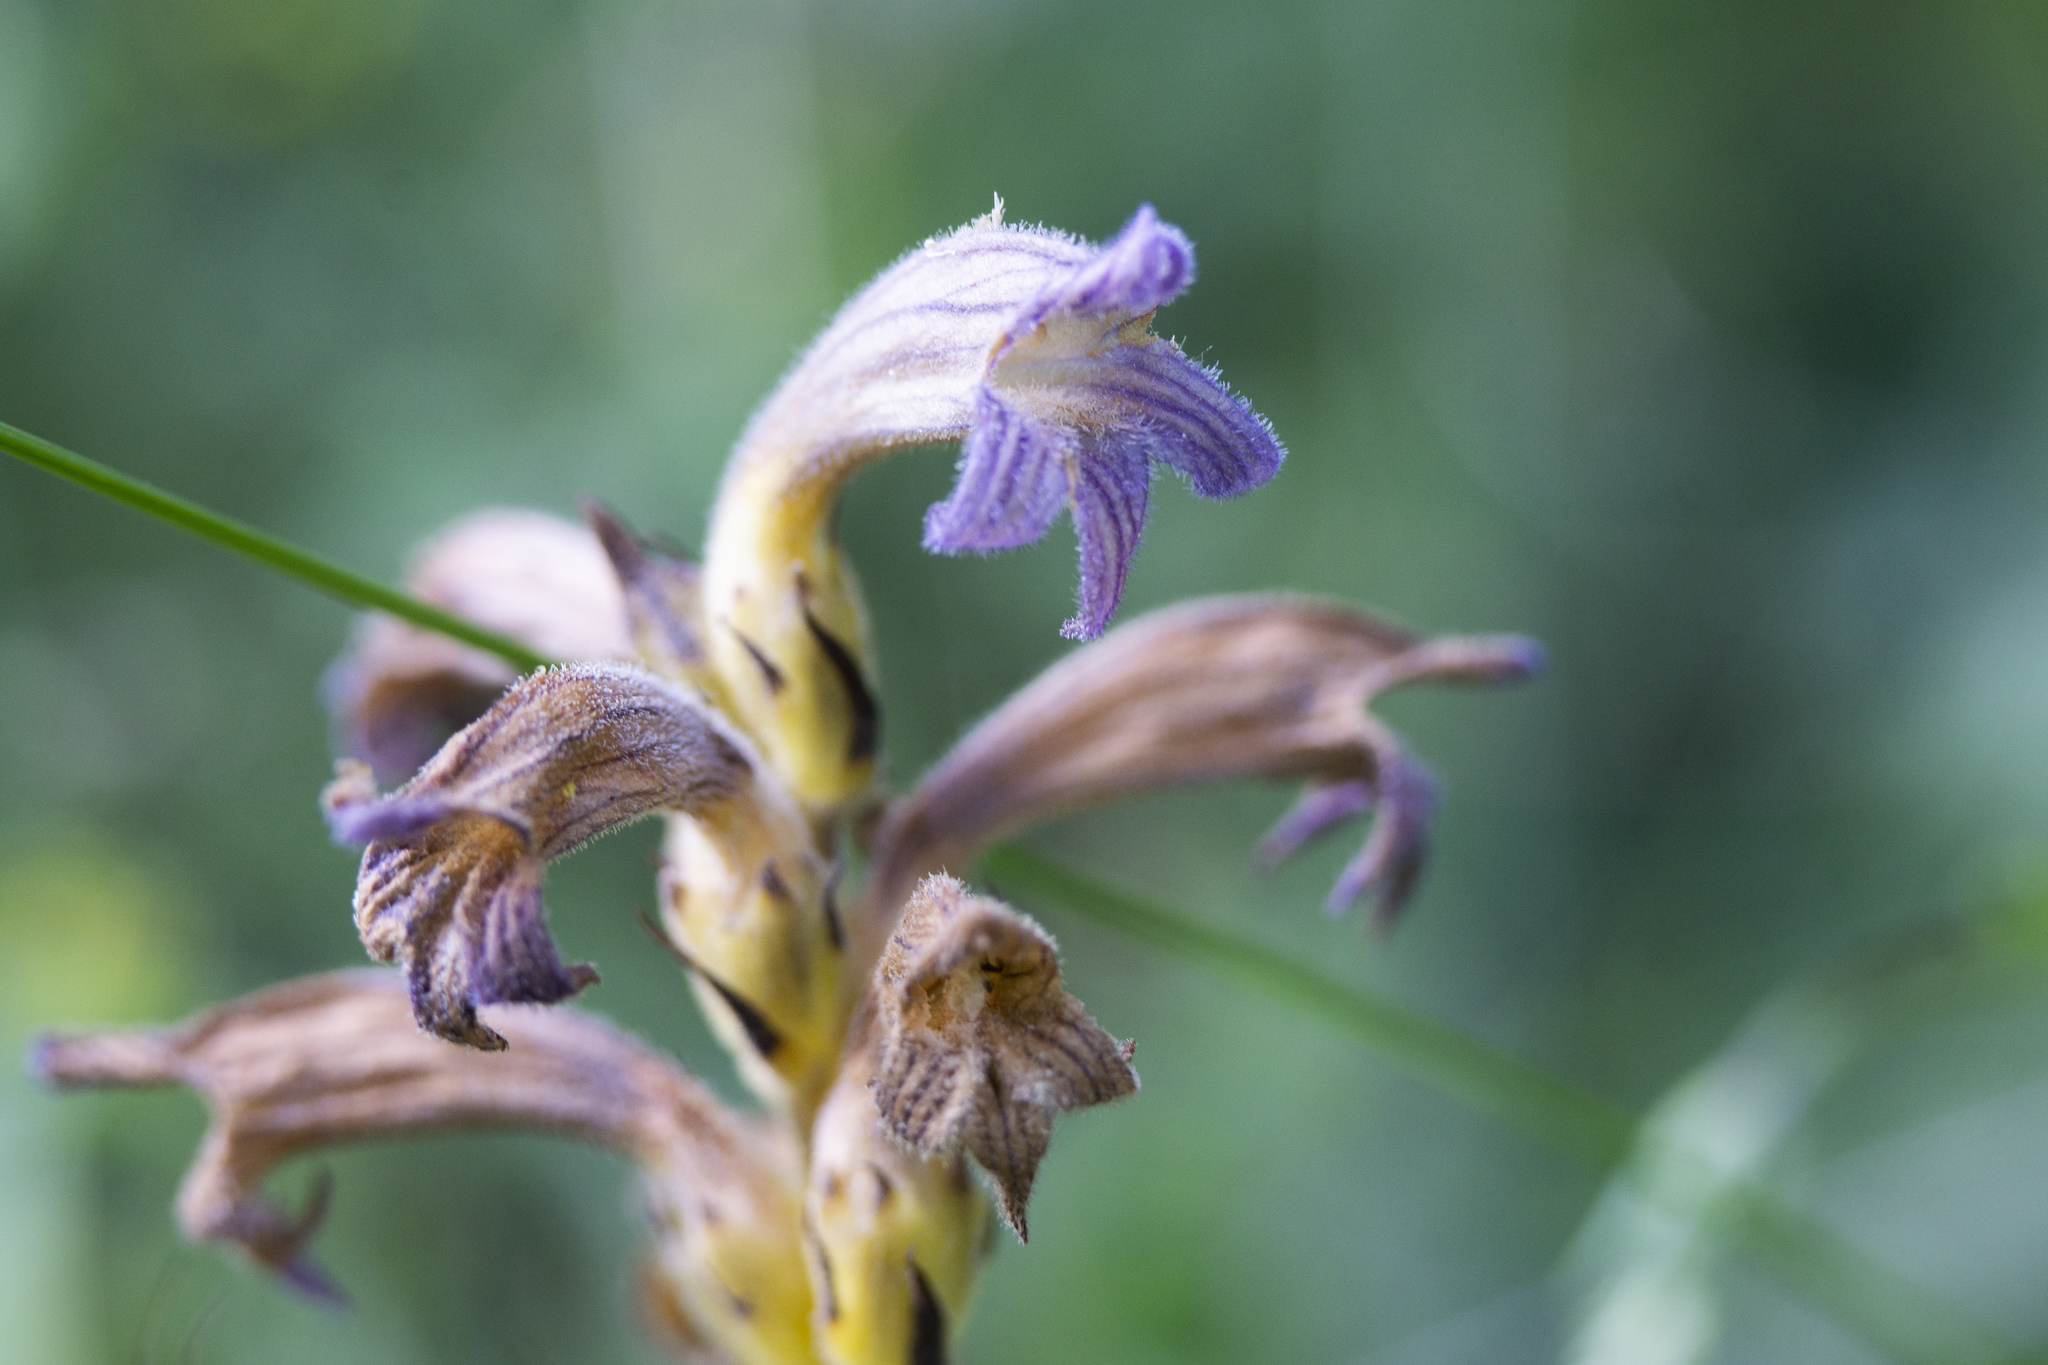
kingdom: Plantae
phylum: Tracheophyta
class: Magnoliopsida
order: Lamiales
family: Orobanchaceae
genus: Phelipanche
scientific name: Phelipanche purpurea
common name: Purple broomrape
